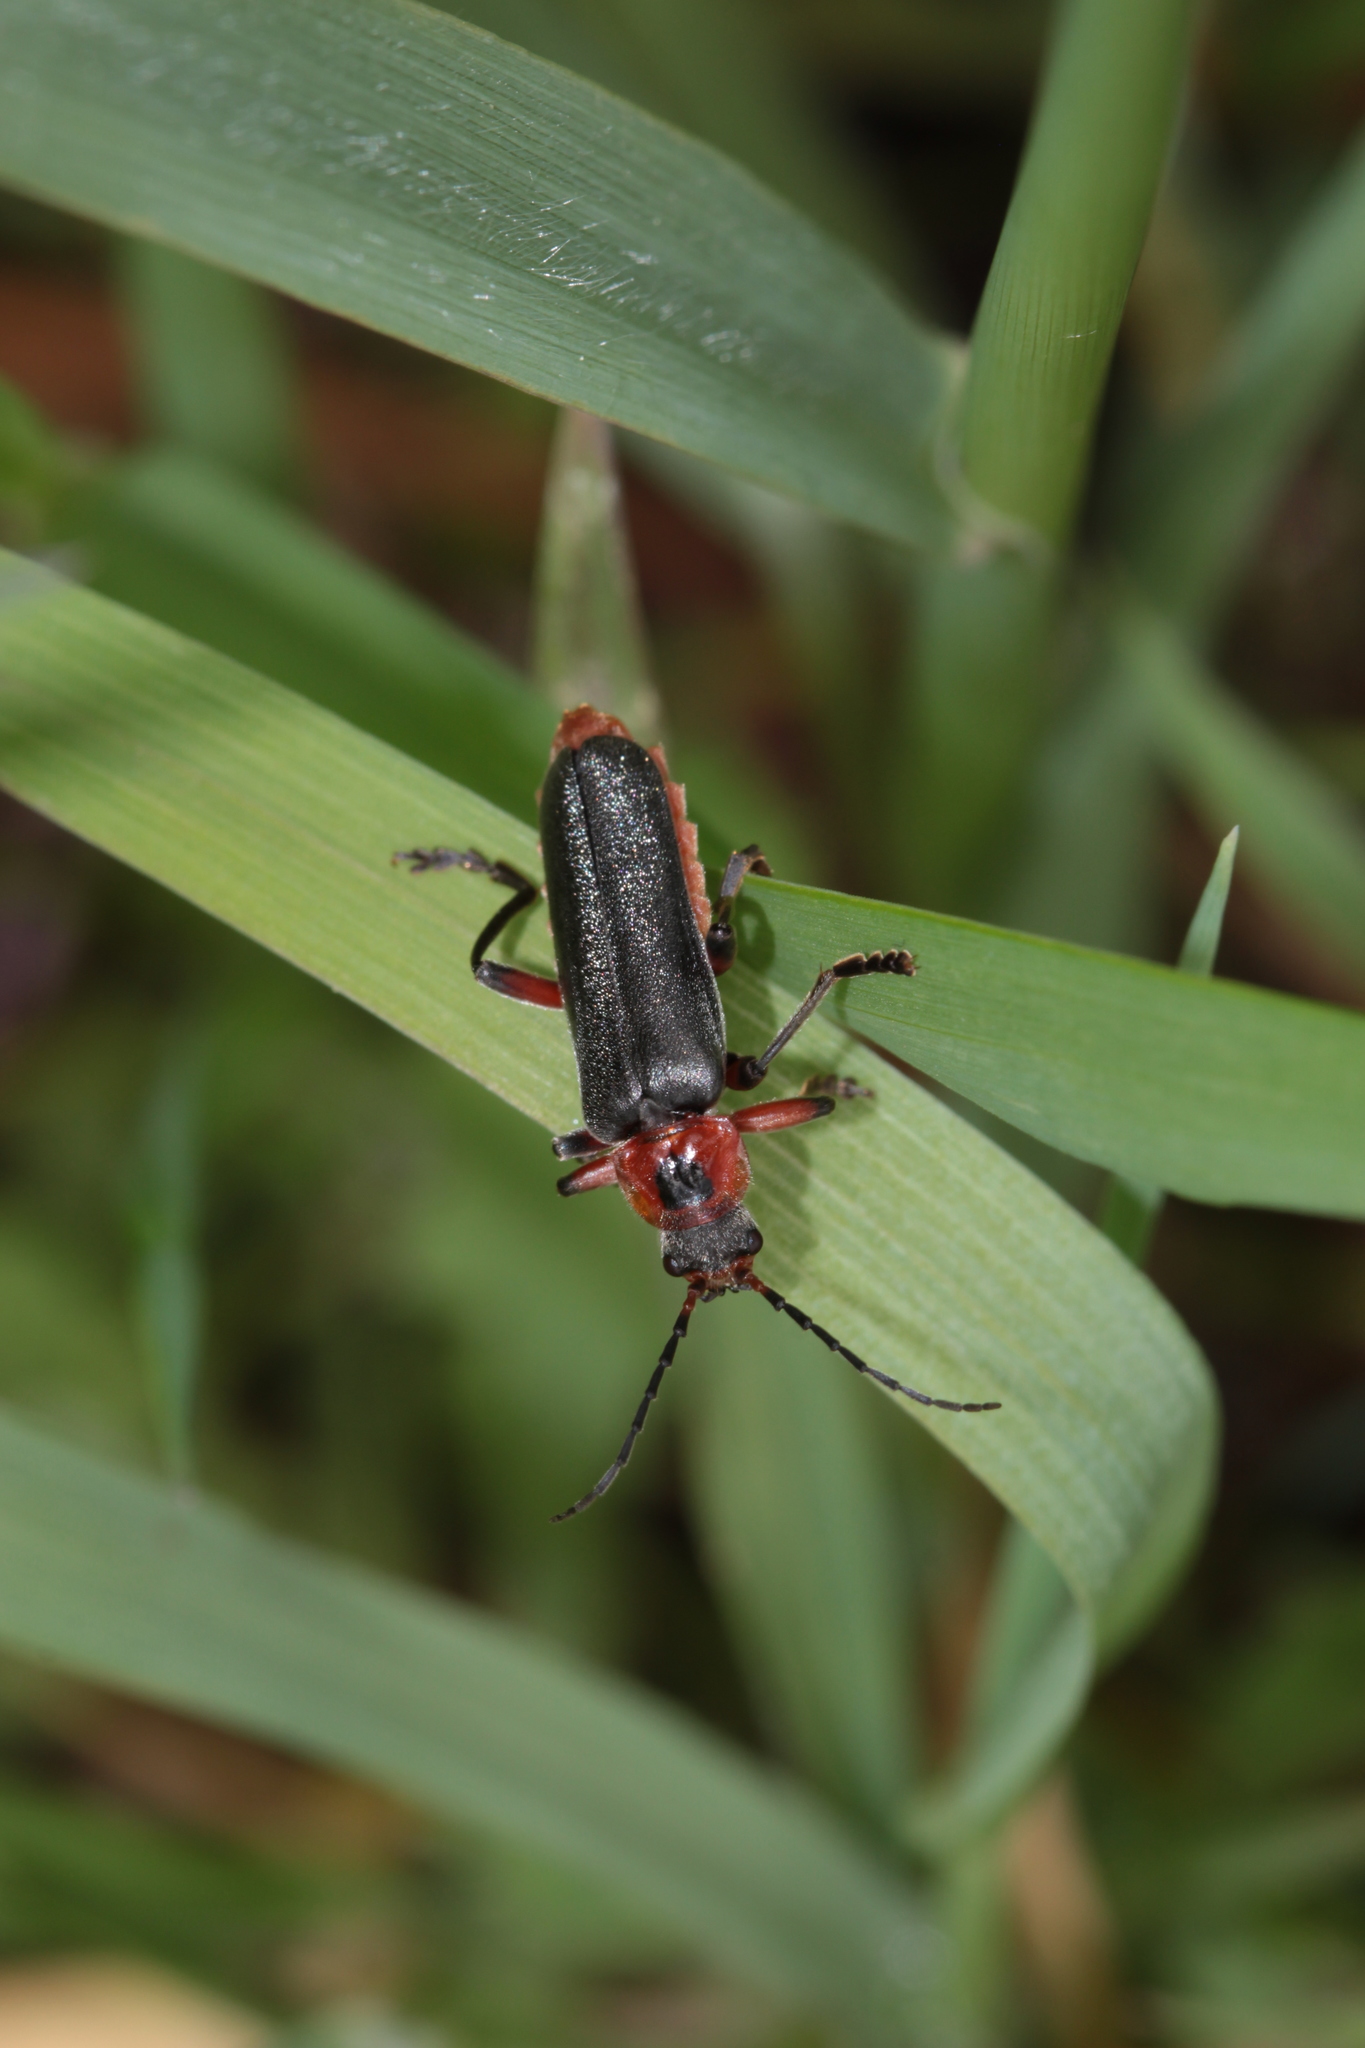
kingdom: Animalia
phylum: Arthropoda
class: Insecta
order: Coleoptera
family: Cantharidae
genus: Cantharis
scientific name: Cantharis rustica
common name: Soldier beetle
